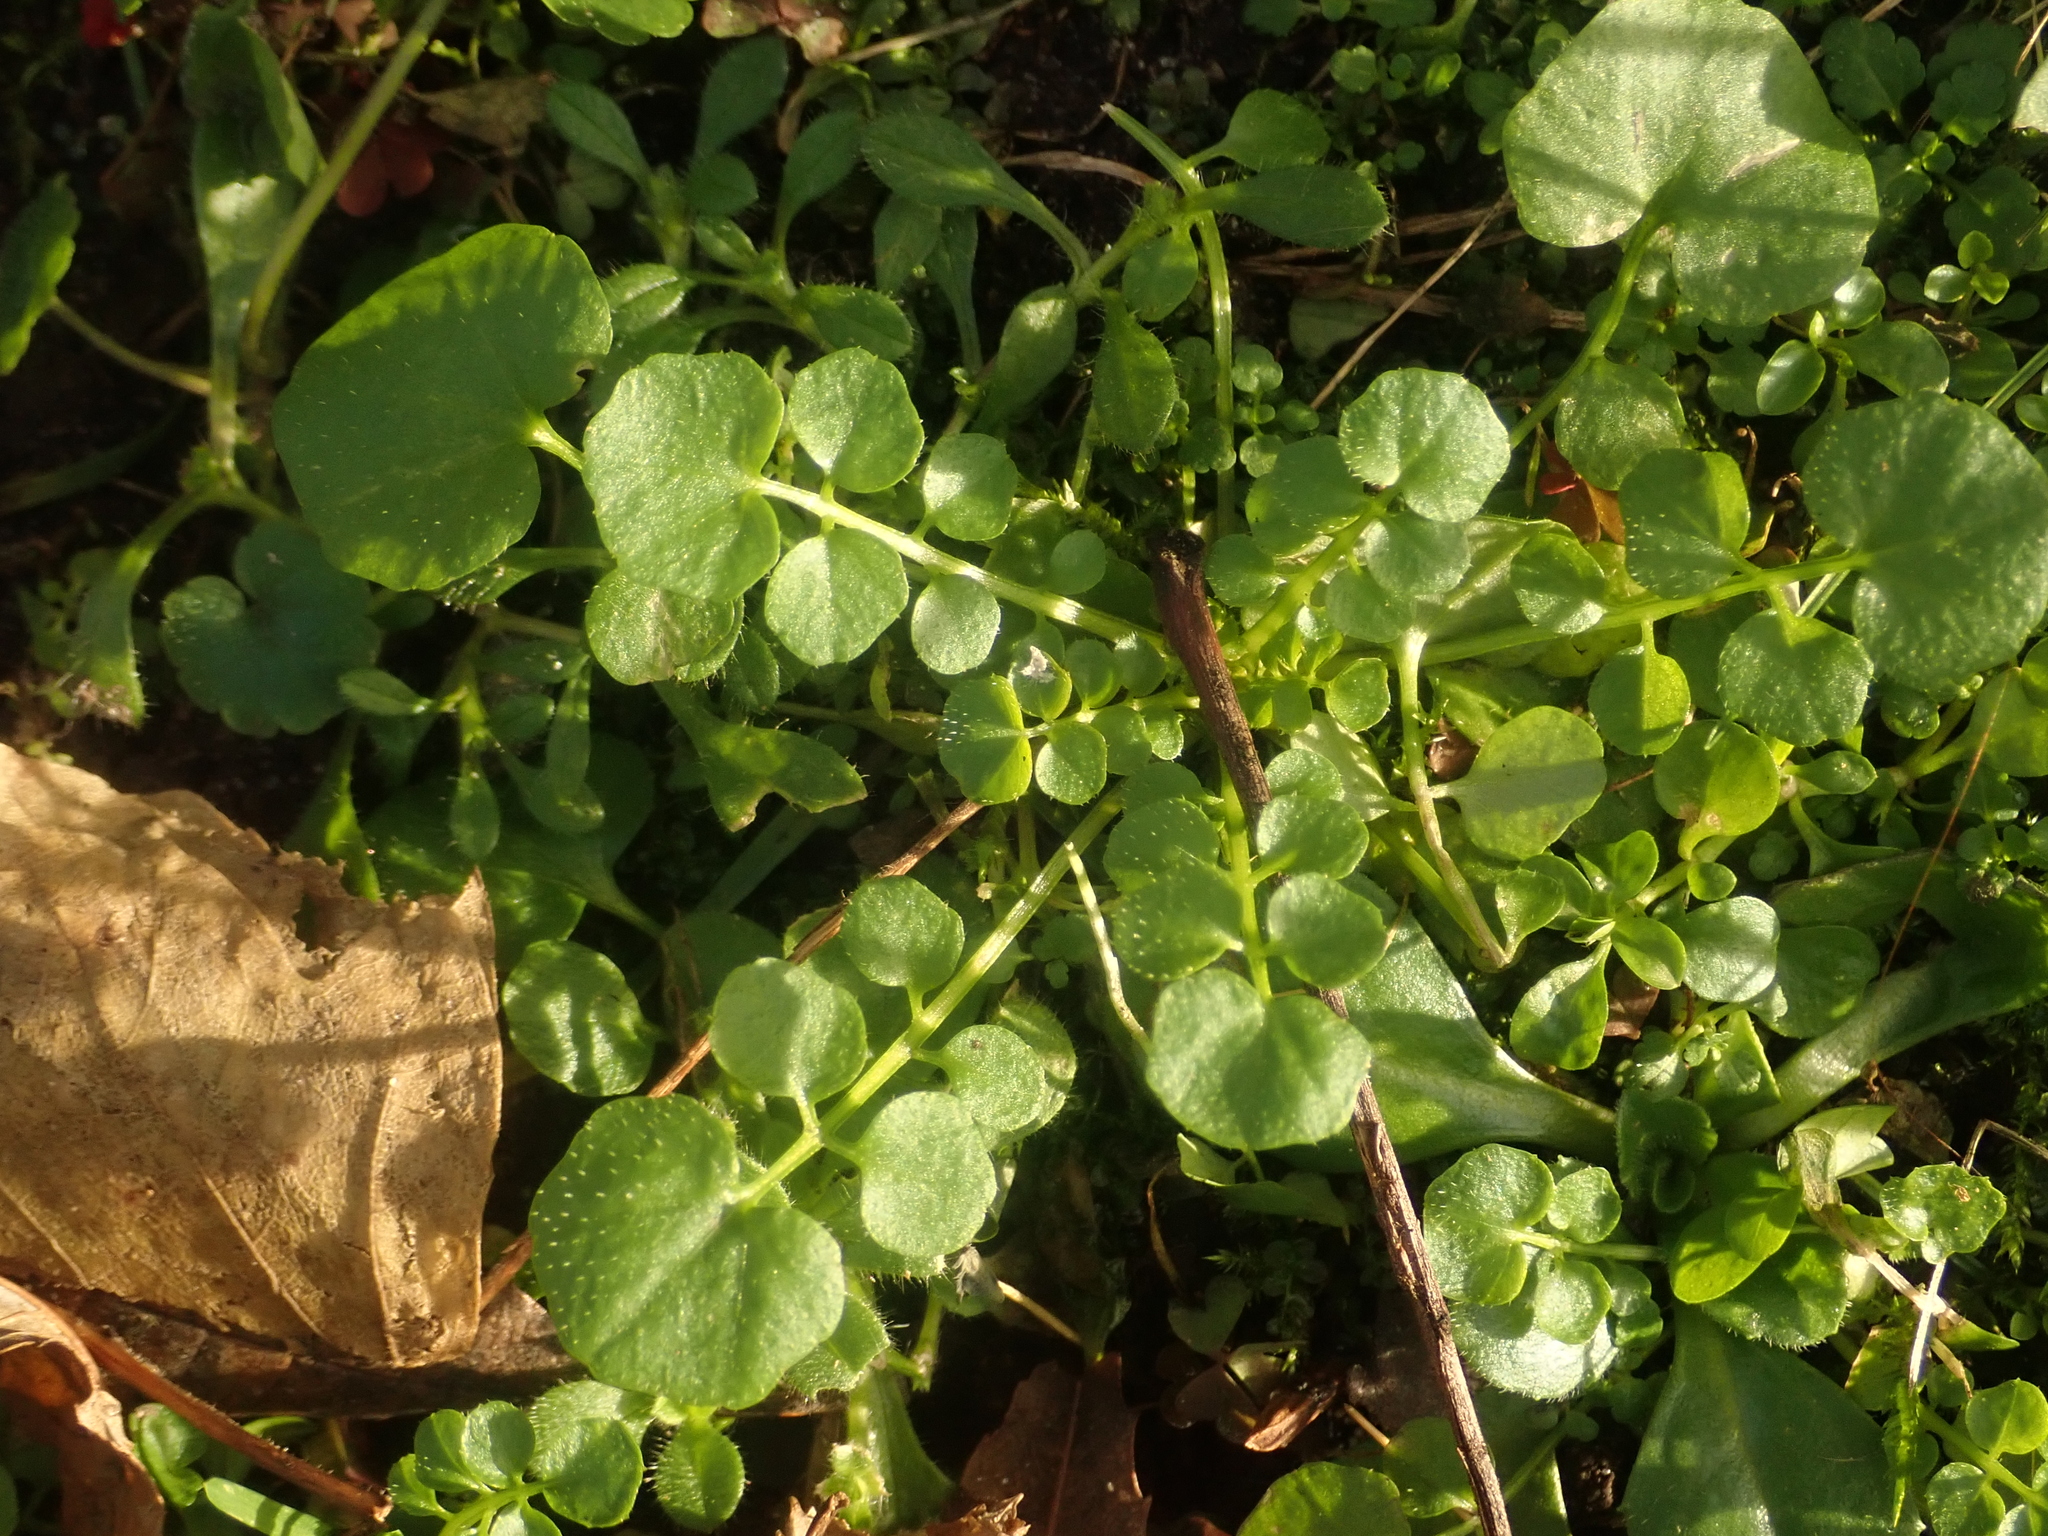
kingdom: Plantae
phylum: Tracheophyta
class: Magnoliopsida
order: Brassicales
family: Brassicaceae
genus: Cardamine
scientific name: Cardamine hirsuta
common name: Hairy bittercress
